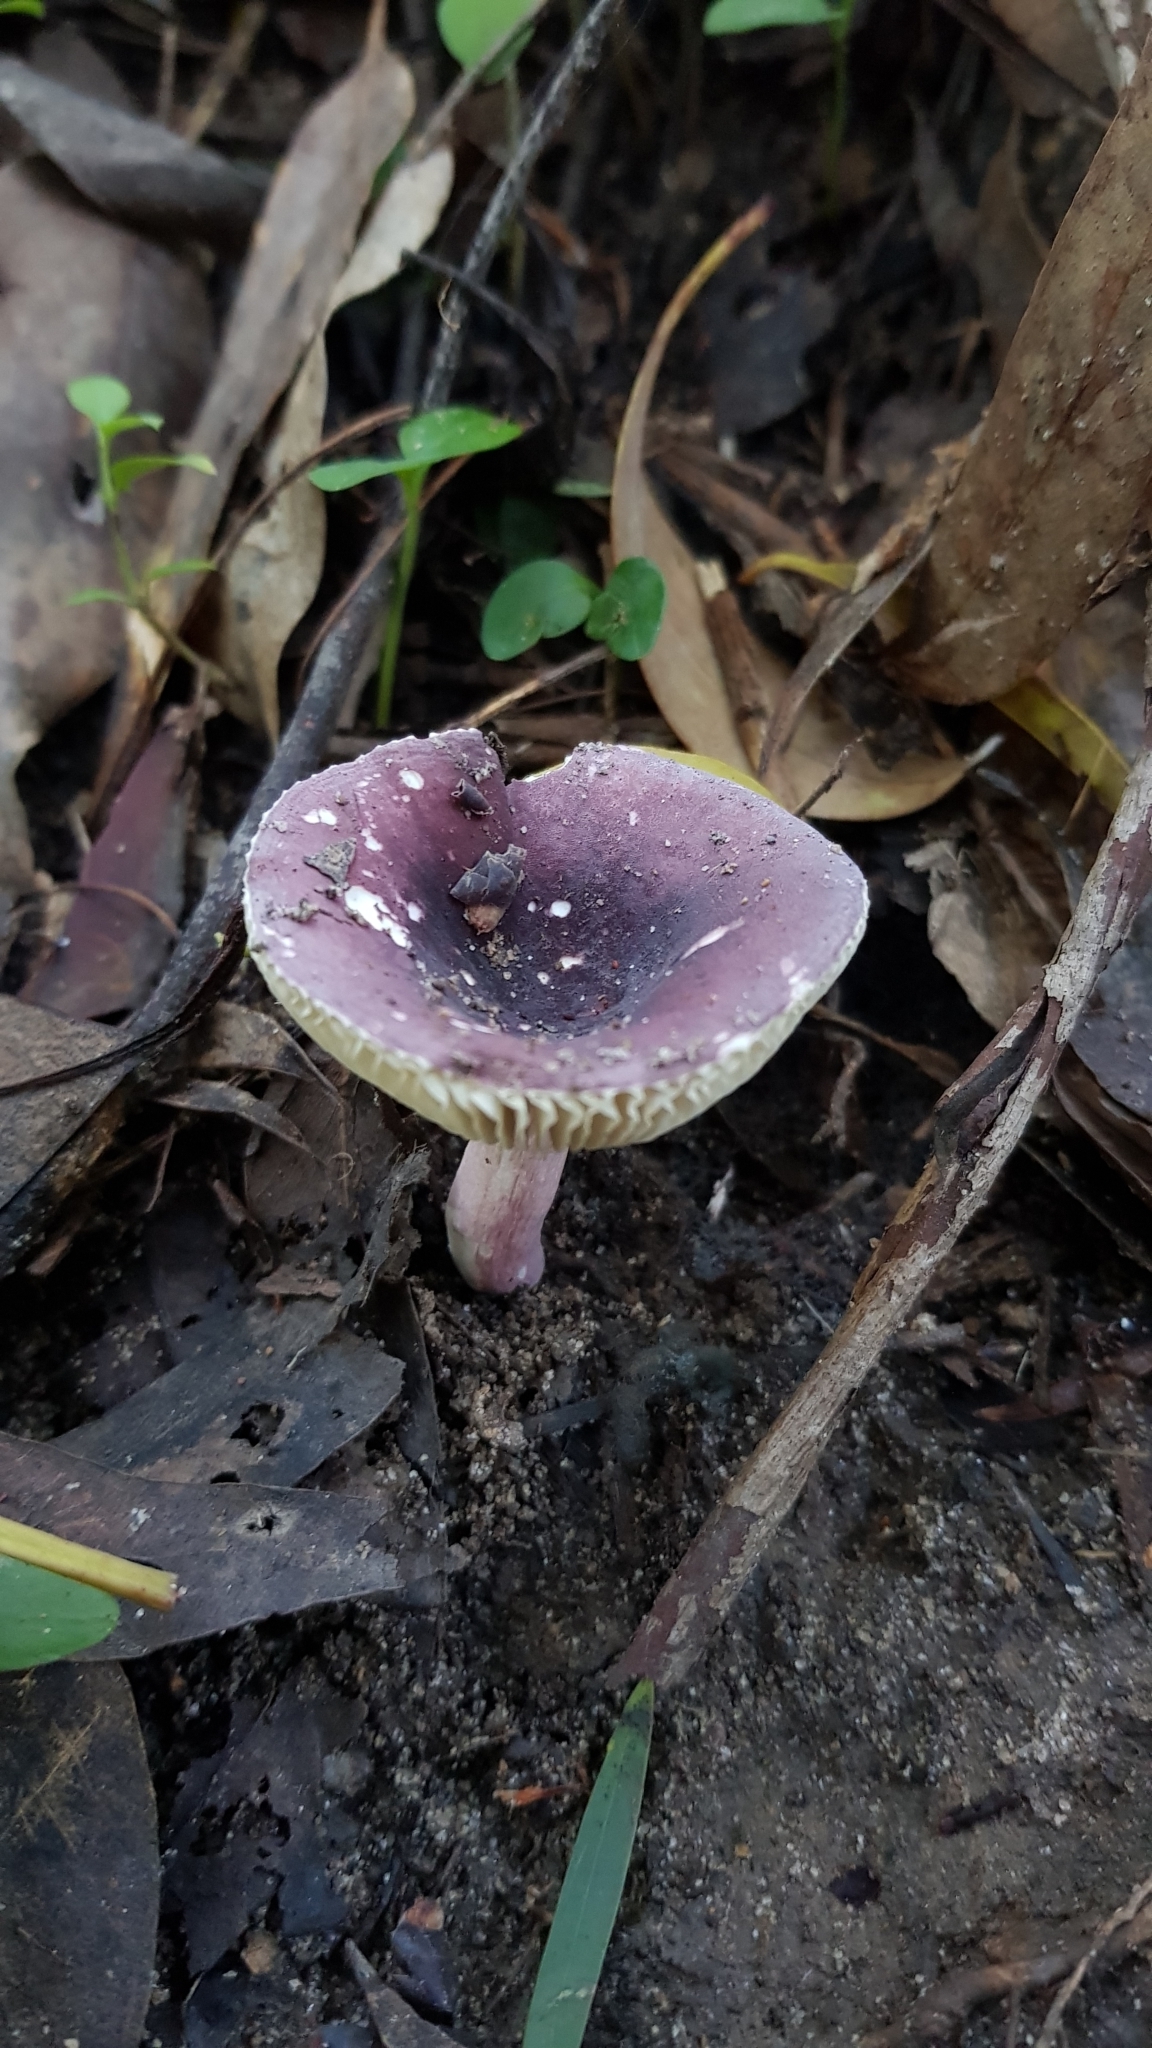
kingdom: Fungi
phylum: Basidiomycota
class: Agaricomycetes
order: Russulales
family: Russulaceae
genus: Russula
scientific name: Russula lenkunya
